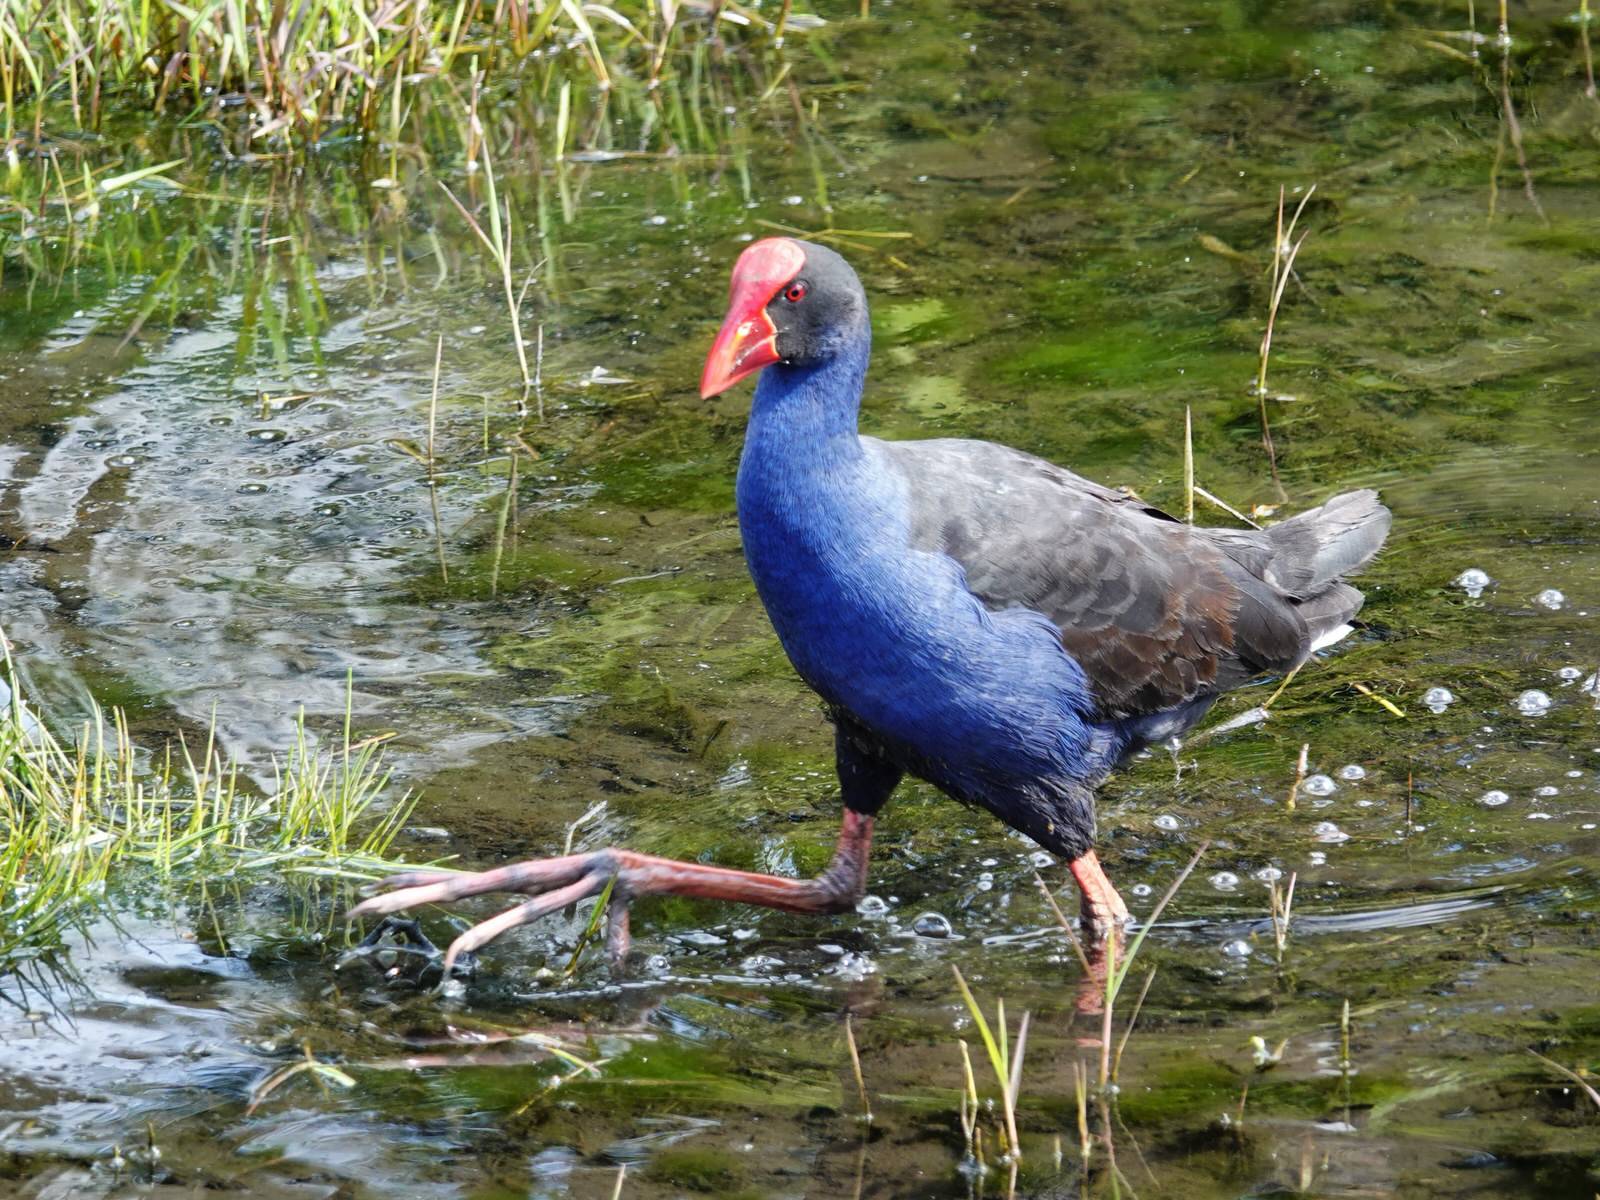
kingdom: Animalia
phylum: Chordata
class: Aves
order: Gruiformes
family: Rallidae
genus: Porphyrio
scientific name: Porphyrio melanotus
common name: Australasian swamphen
